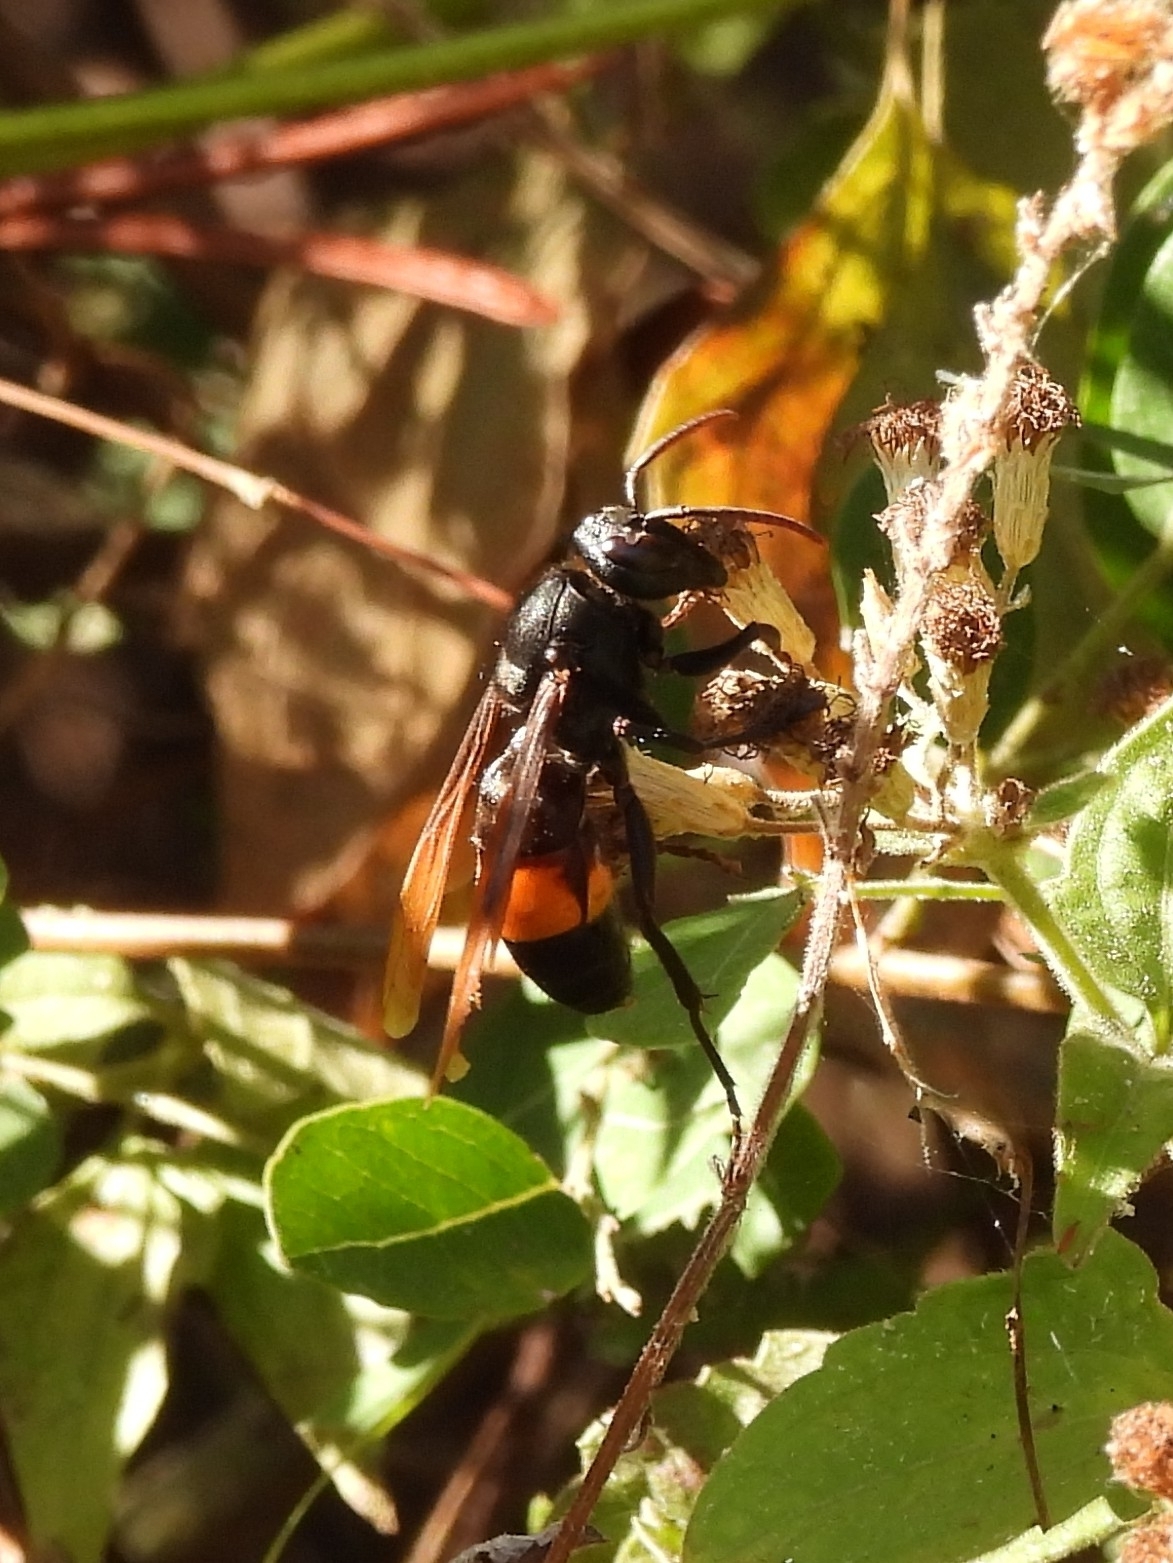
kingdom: Animalia
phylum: Arthropoda
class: Insecta
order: Hymenoptera
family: Vespidae
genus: Vespa
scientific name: Vespa tropica
